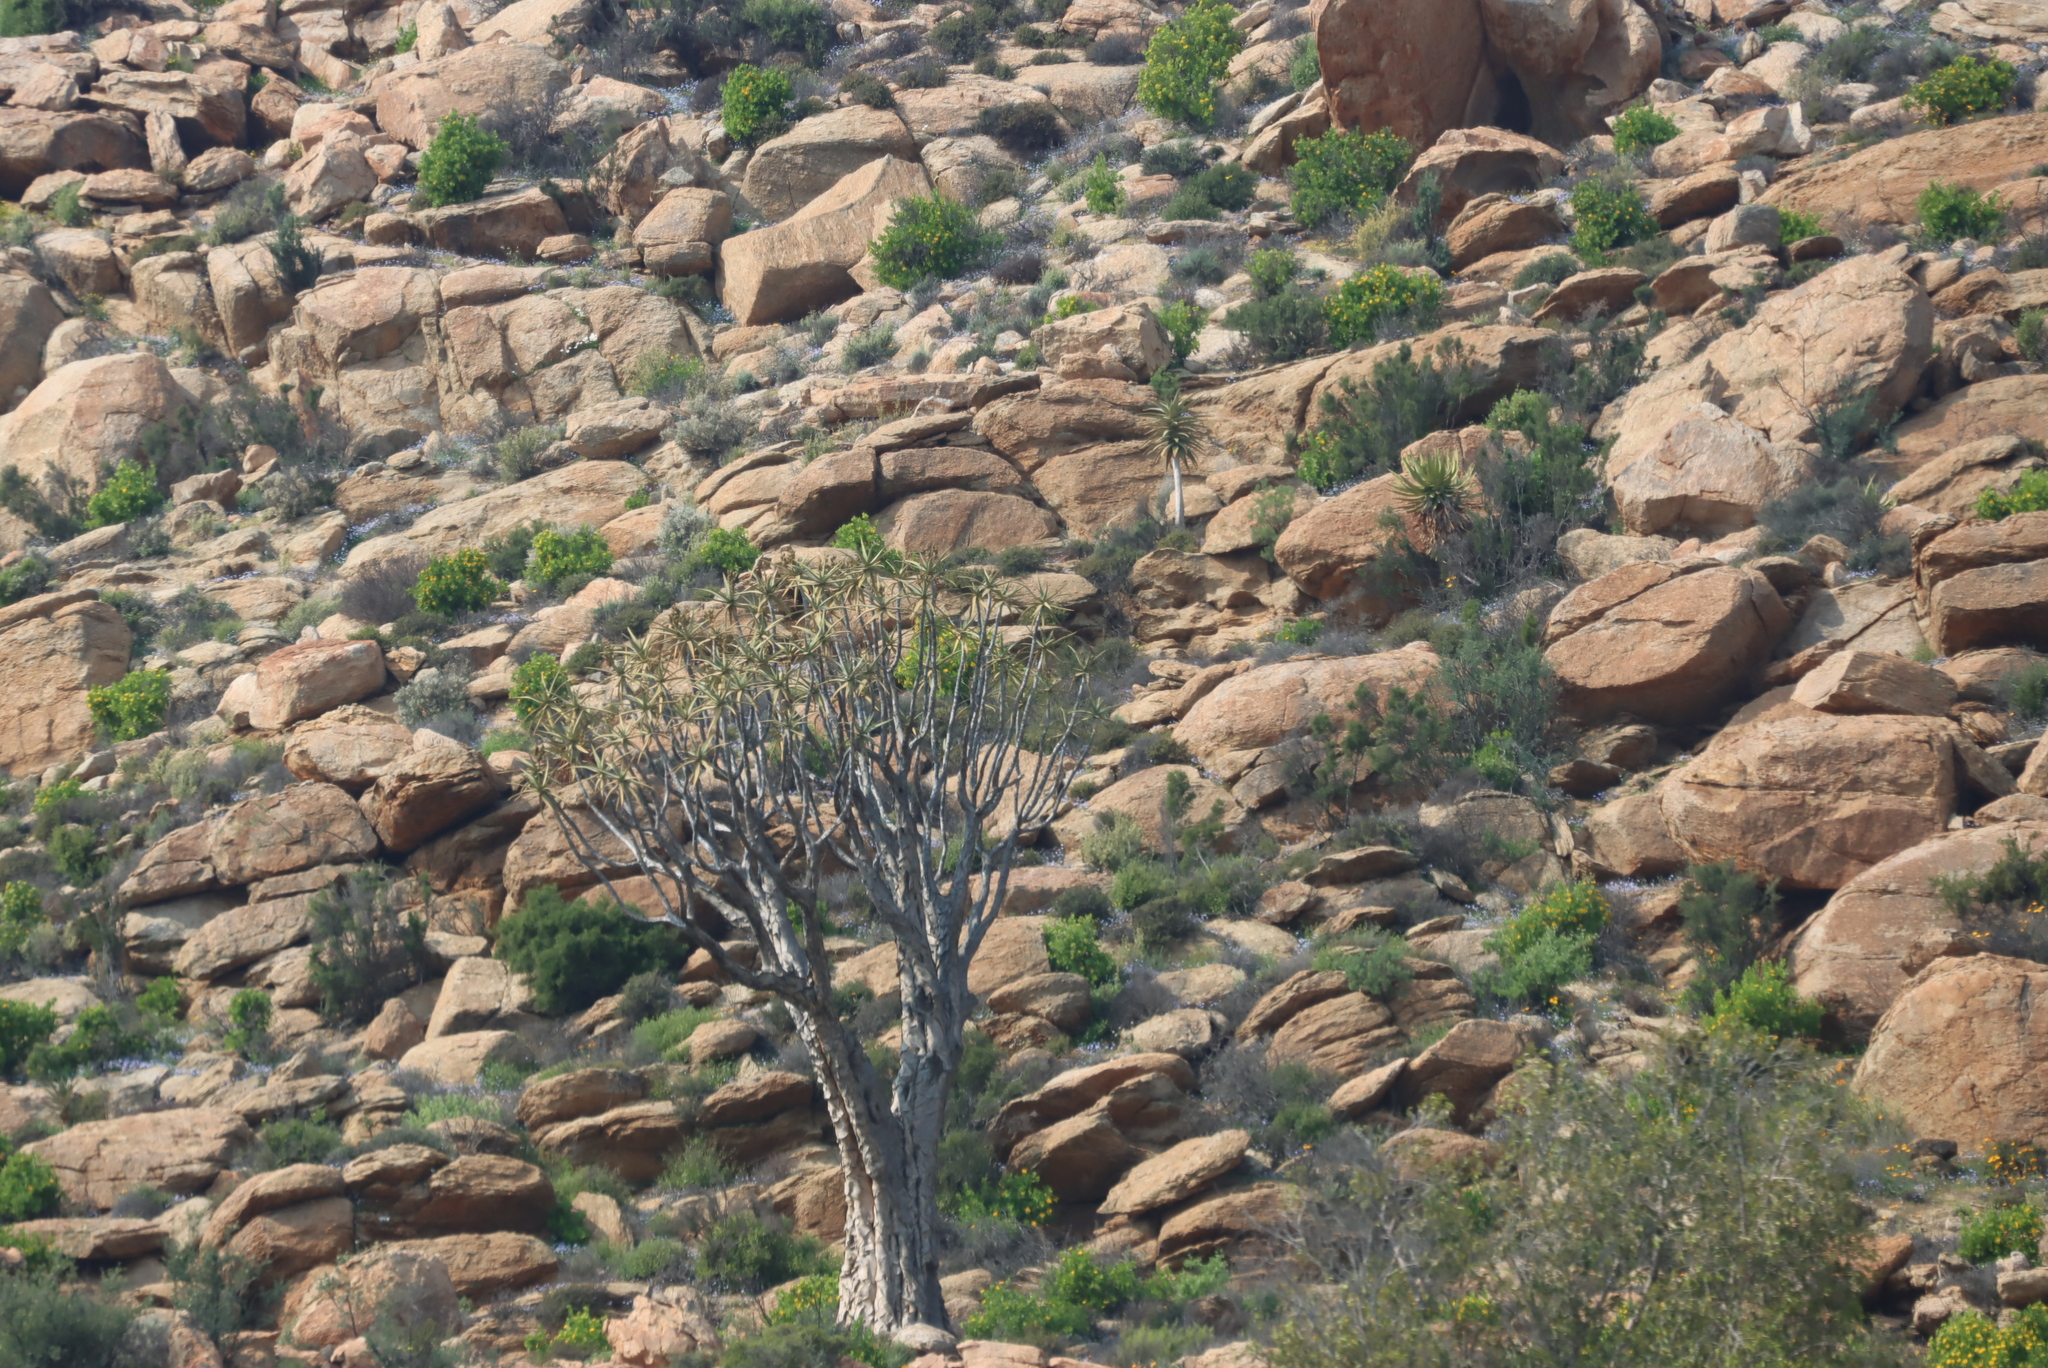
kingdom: Plantae
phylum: Tracheophyta
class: Liliopsida
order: Asparagales
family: Asphodelaceae
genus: Aloidendron
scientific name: Aloidendron dichotomum
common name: Quiver tree
